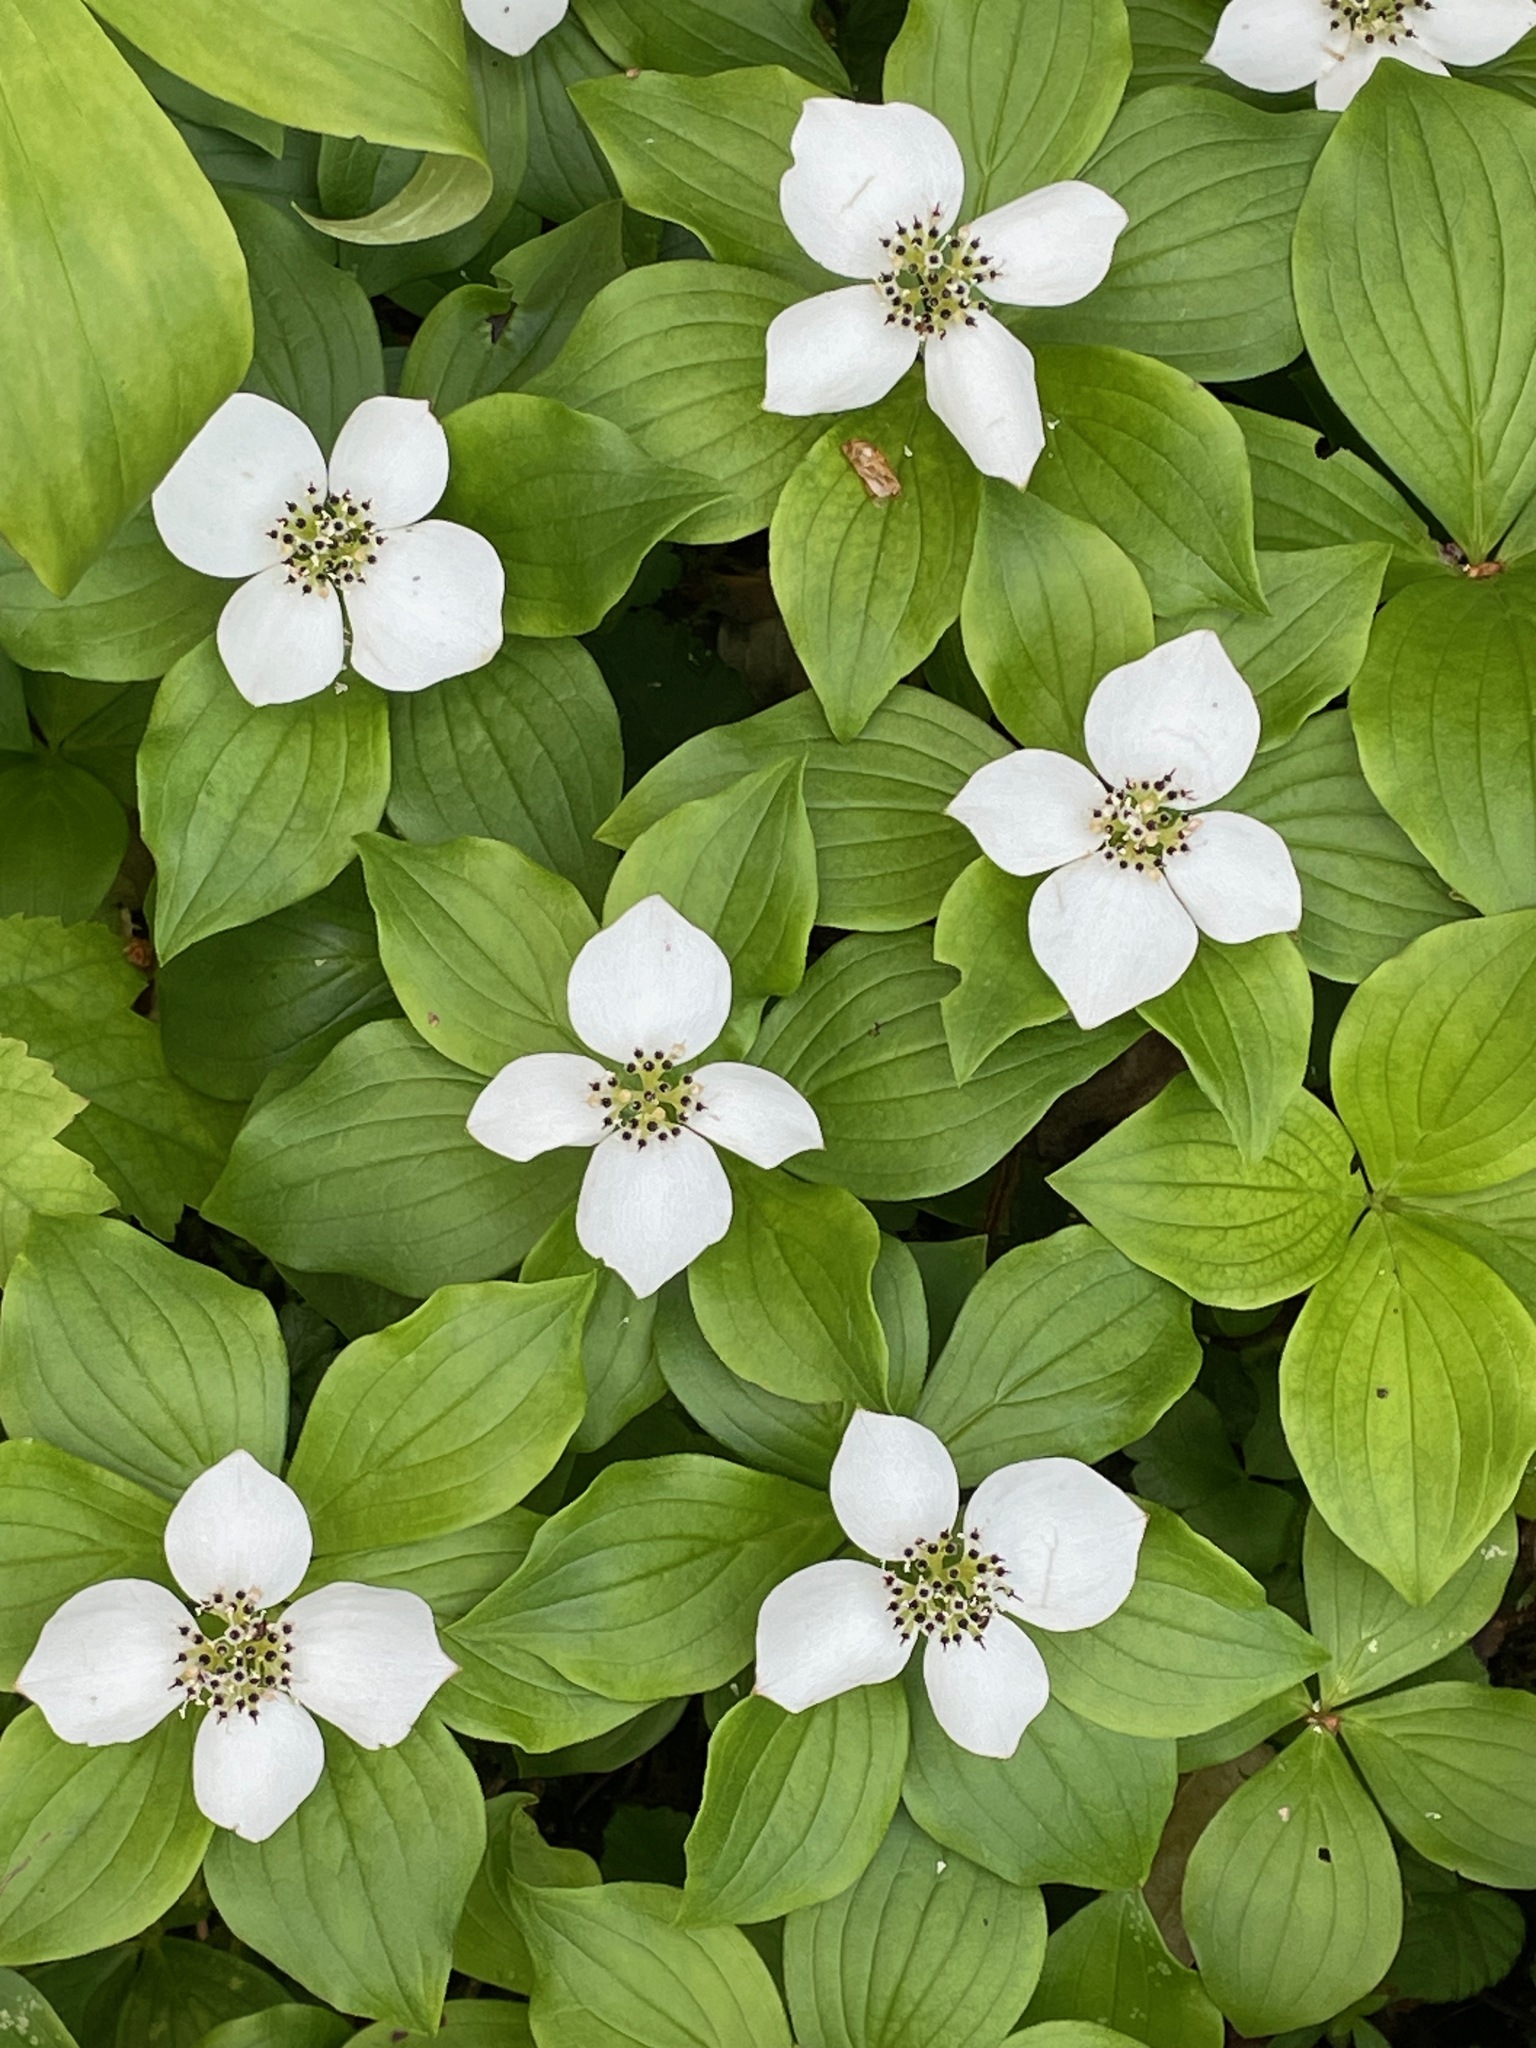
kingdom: Plantae
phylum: Tracheophyta
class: Magnoliopsida
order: Cornales
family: Cornaceae
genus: Cornus
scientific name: Cornus canadensis
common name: Creeping dogwood
